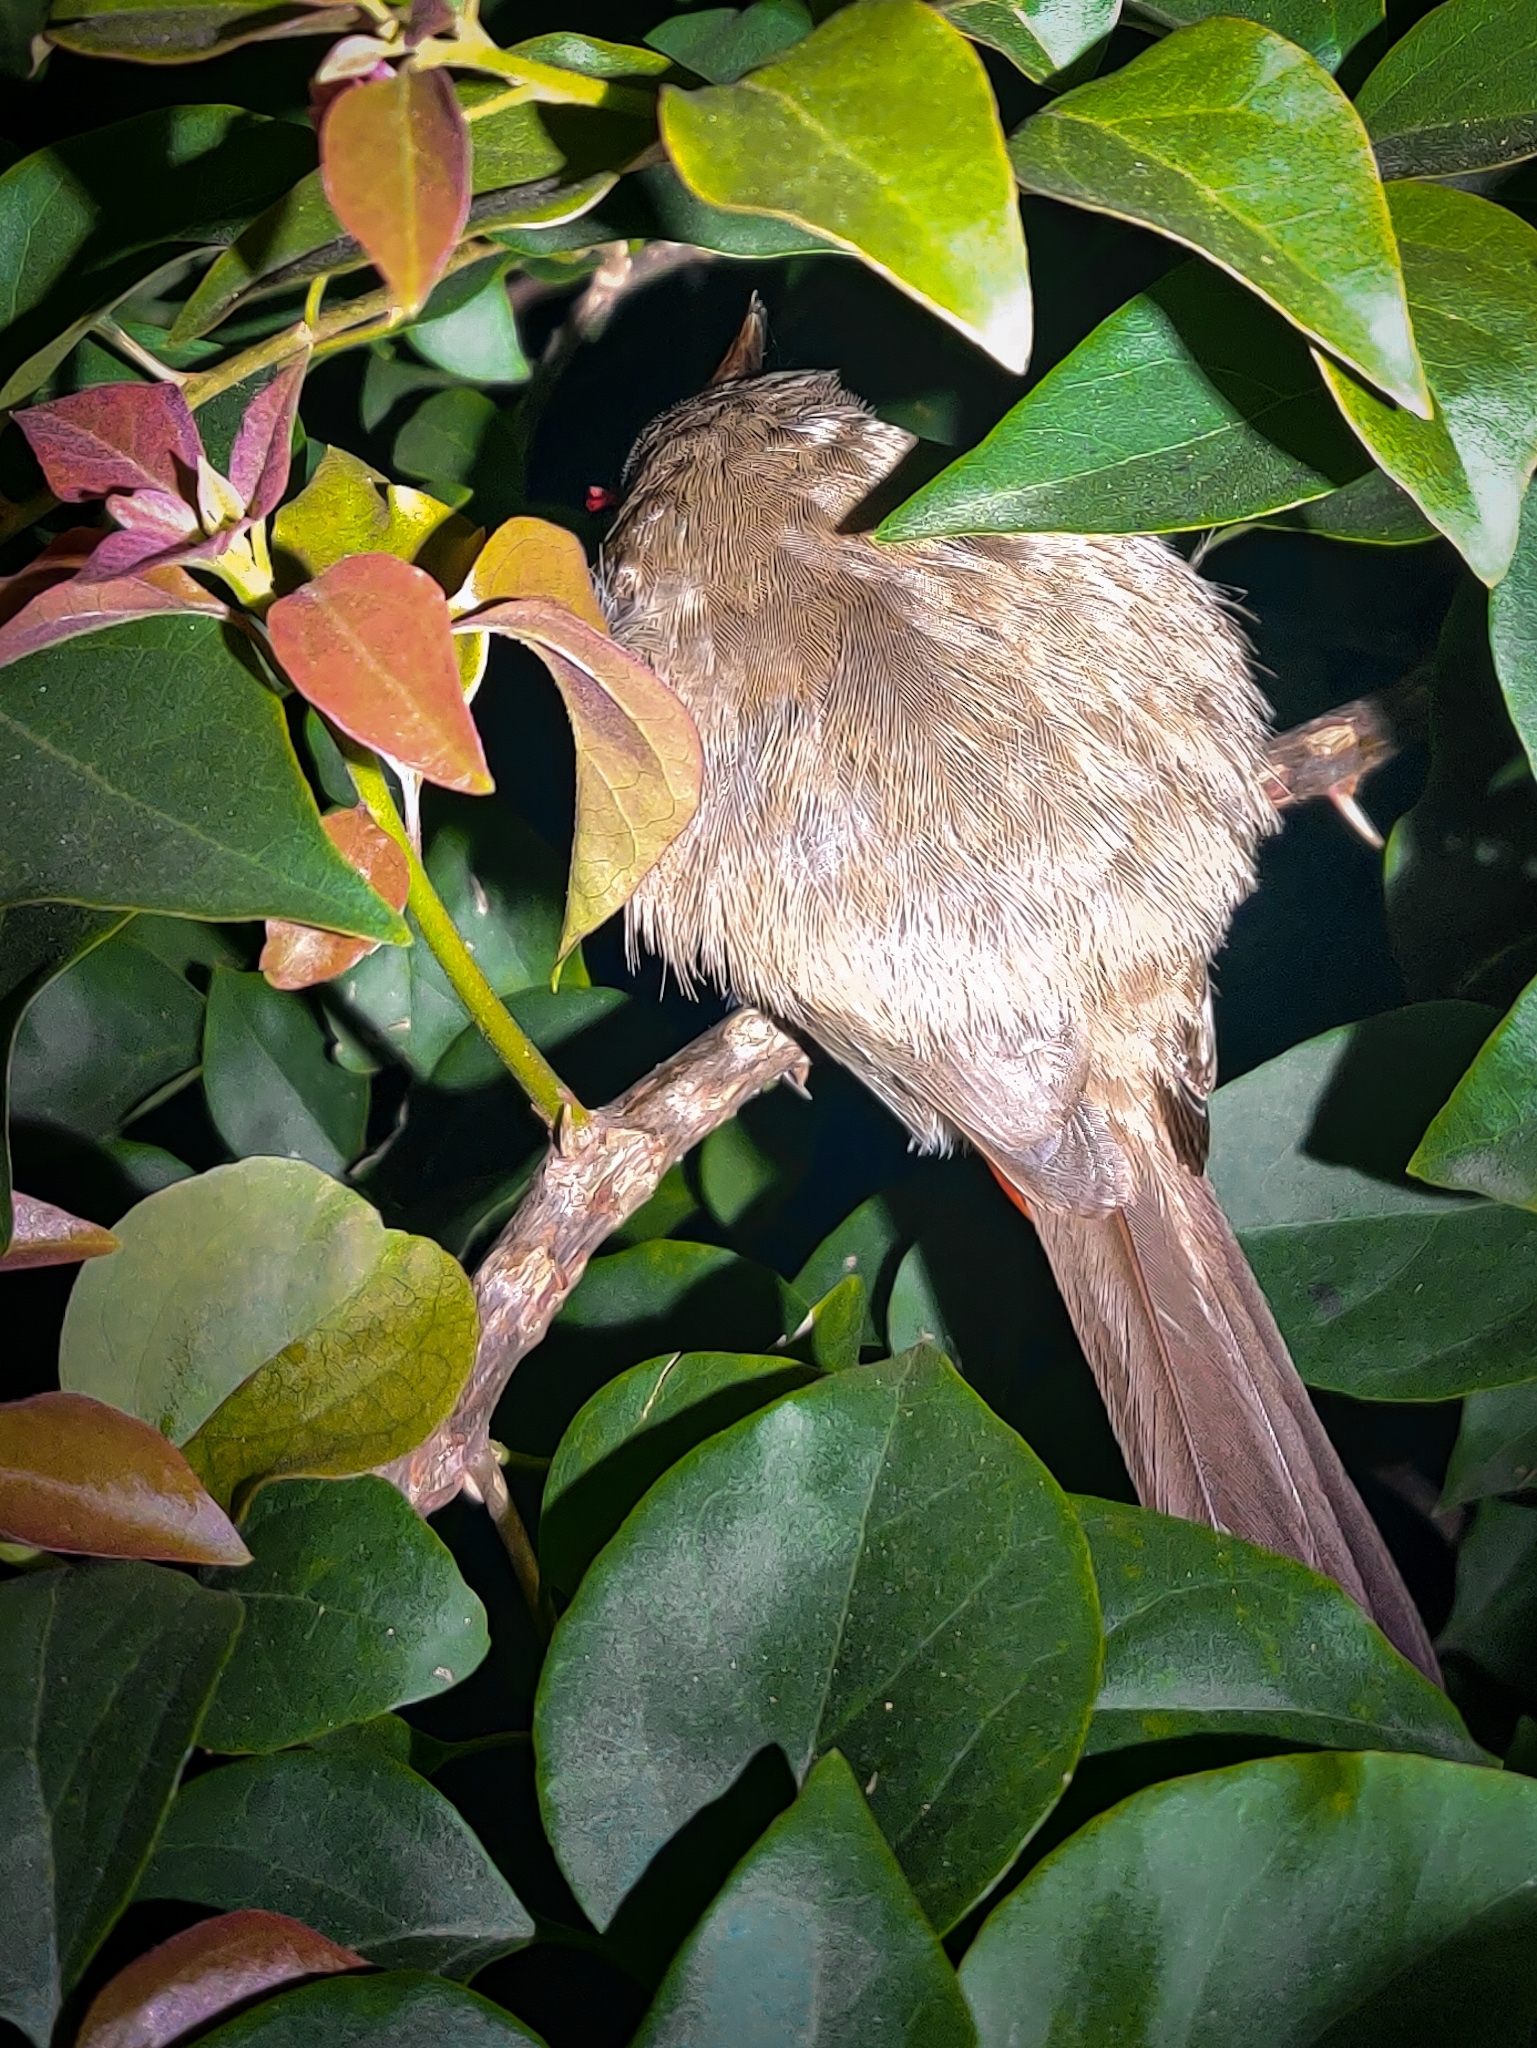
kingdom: Animalia
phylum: Chordata
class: Aves
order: Passeriformes
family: Pycnonotidae
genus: Pycnonotus
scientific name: Pycnonotus jocosus
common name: Red-whiskered bulbul
